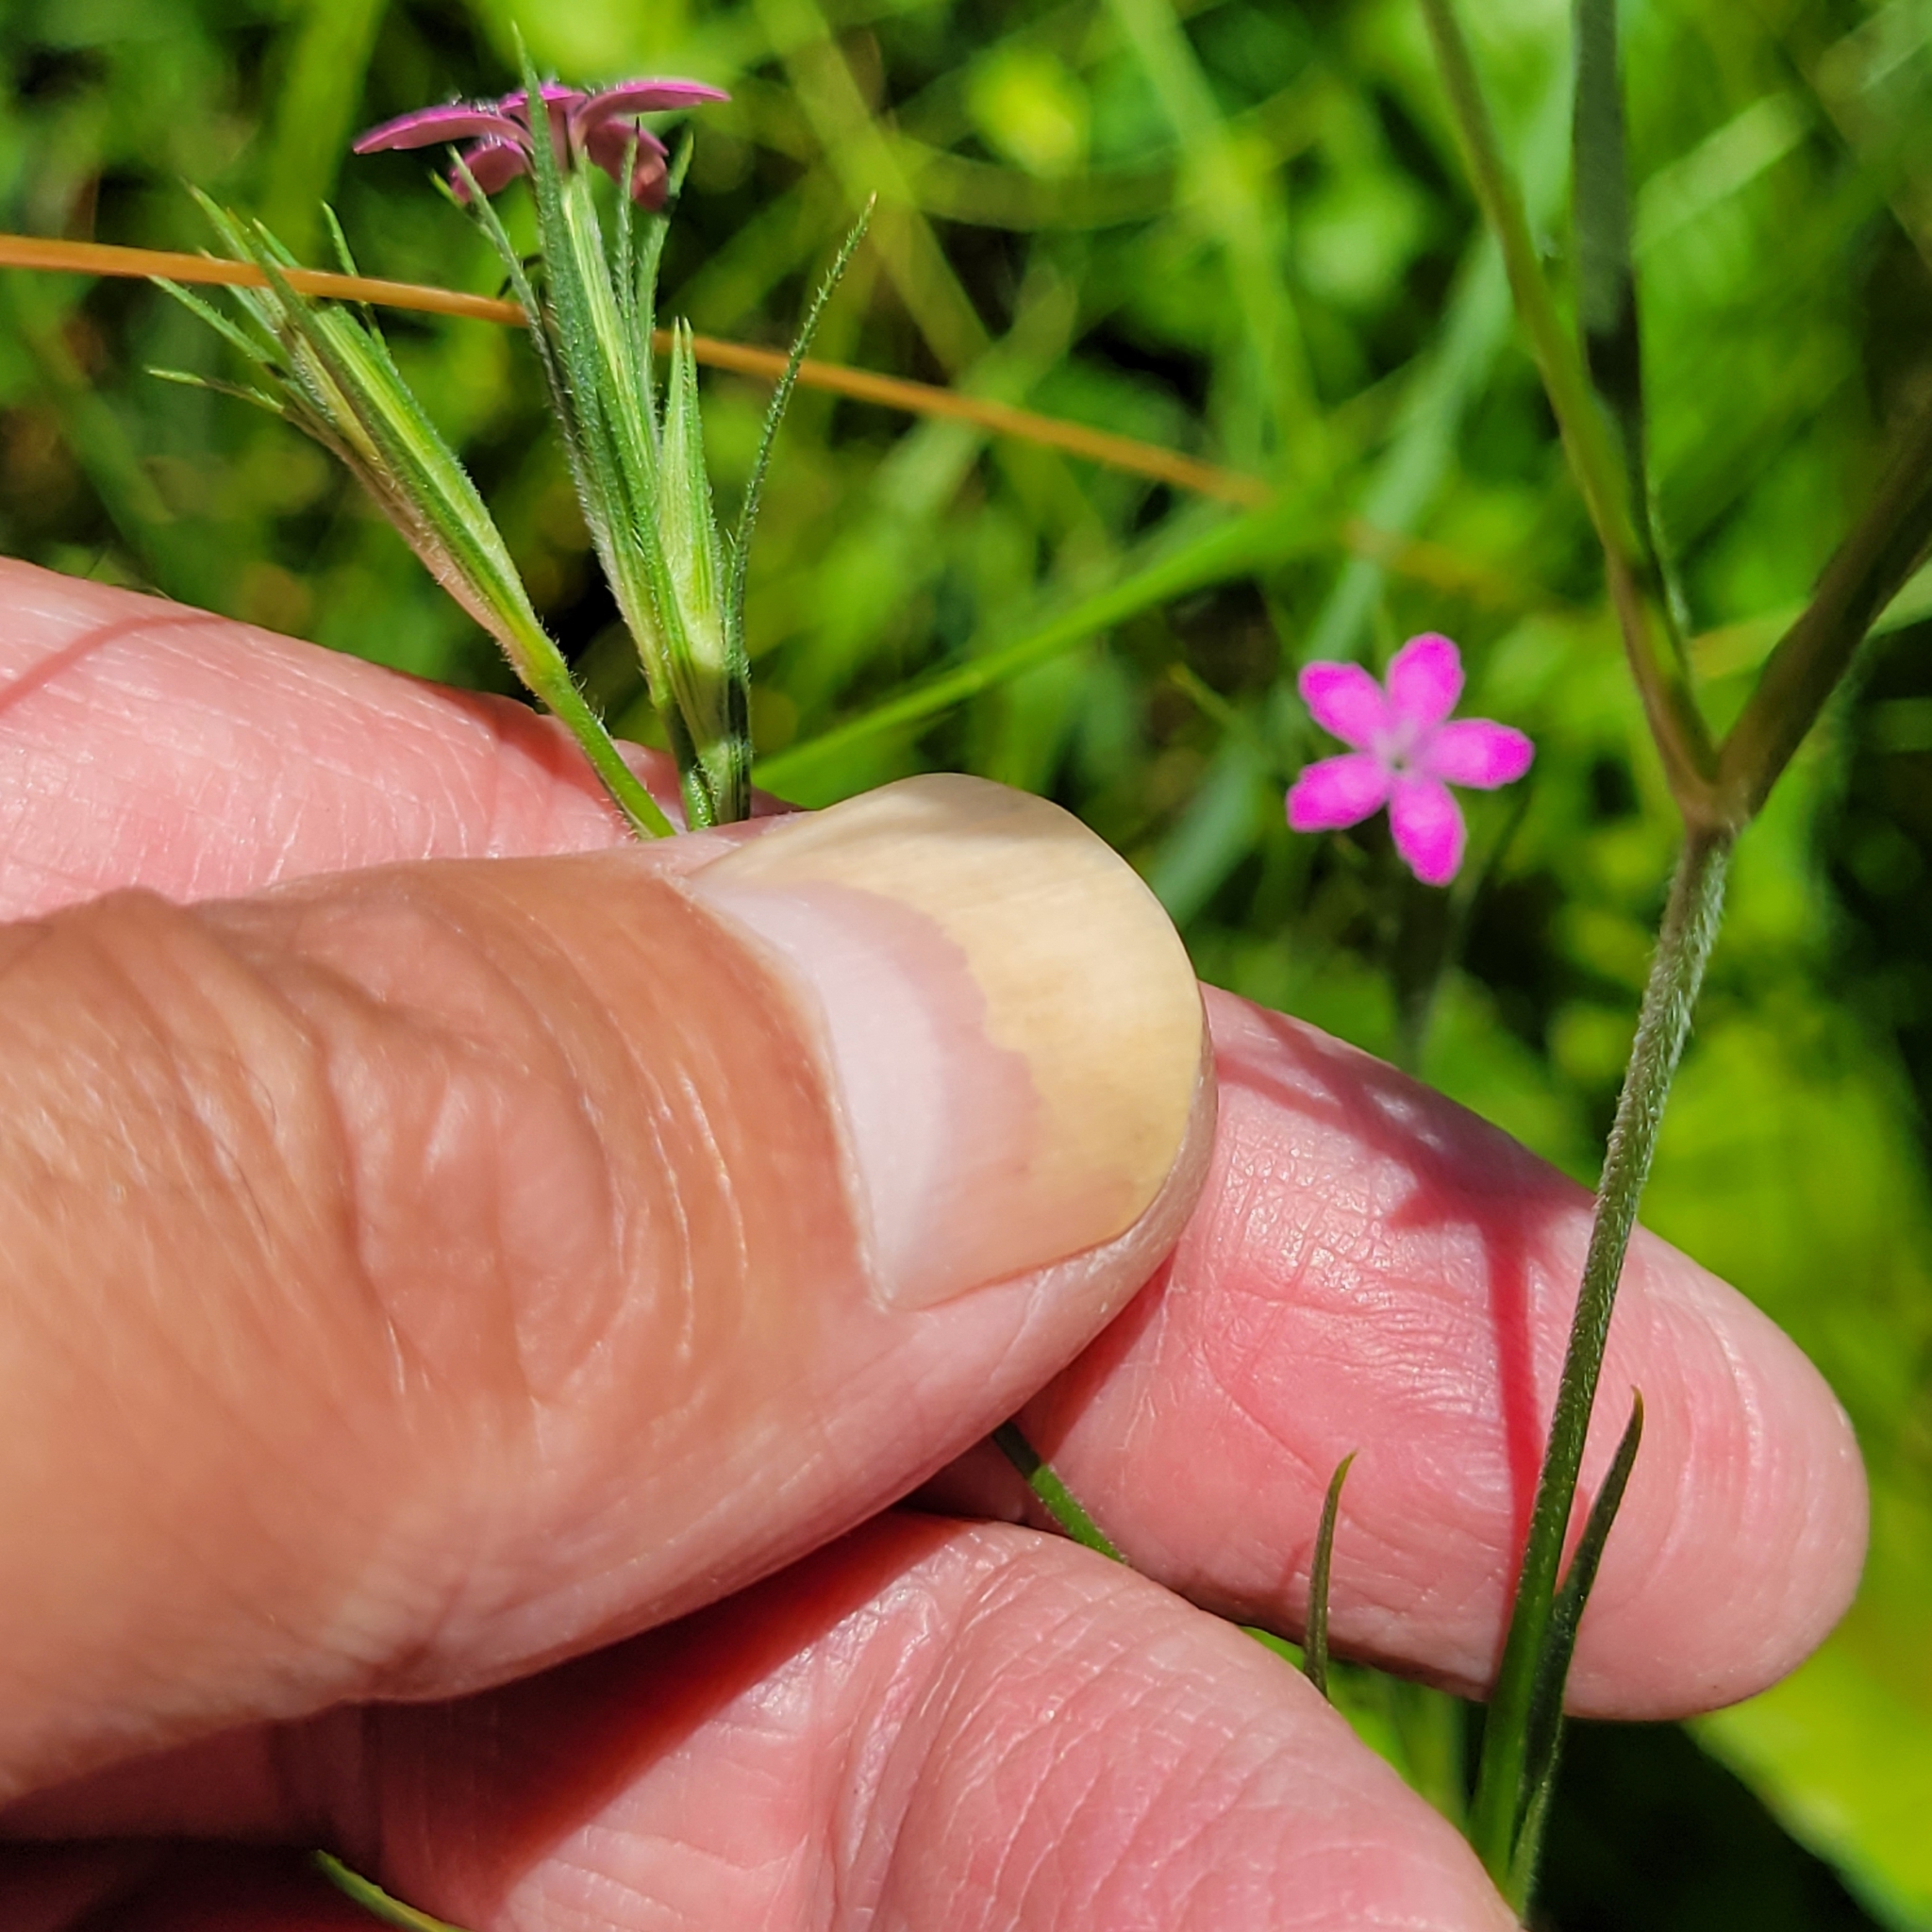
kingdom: Plantae
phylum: Tracheophyta
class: Magnoliopsida
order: Caryophyllales
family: Caryophyllaceae
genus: Dianthus
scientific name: Dianthus armeria
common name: Deptford pink
